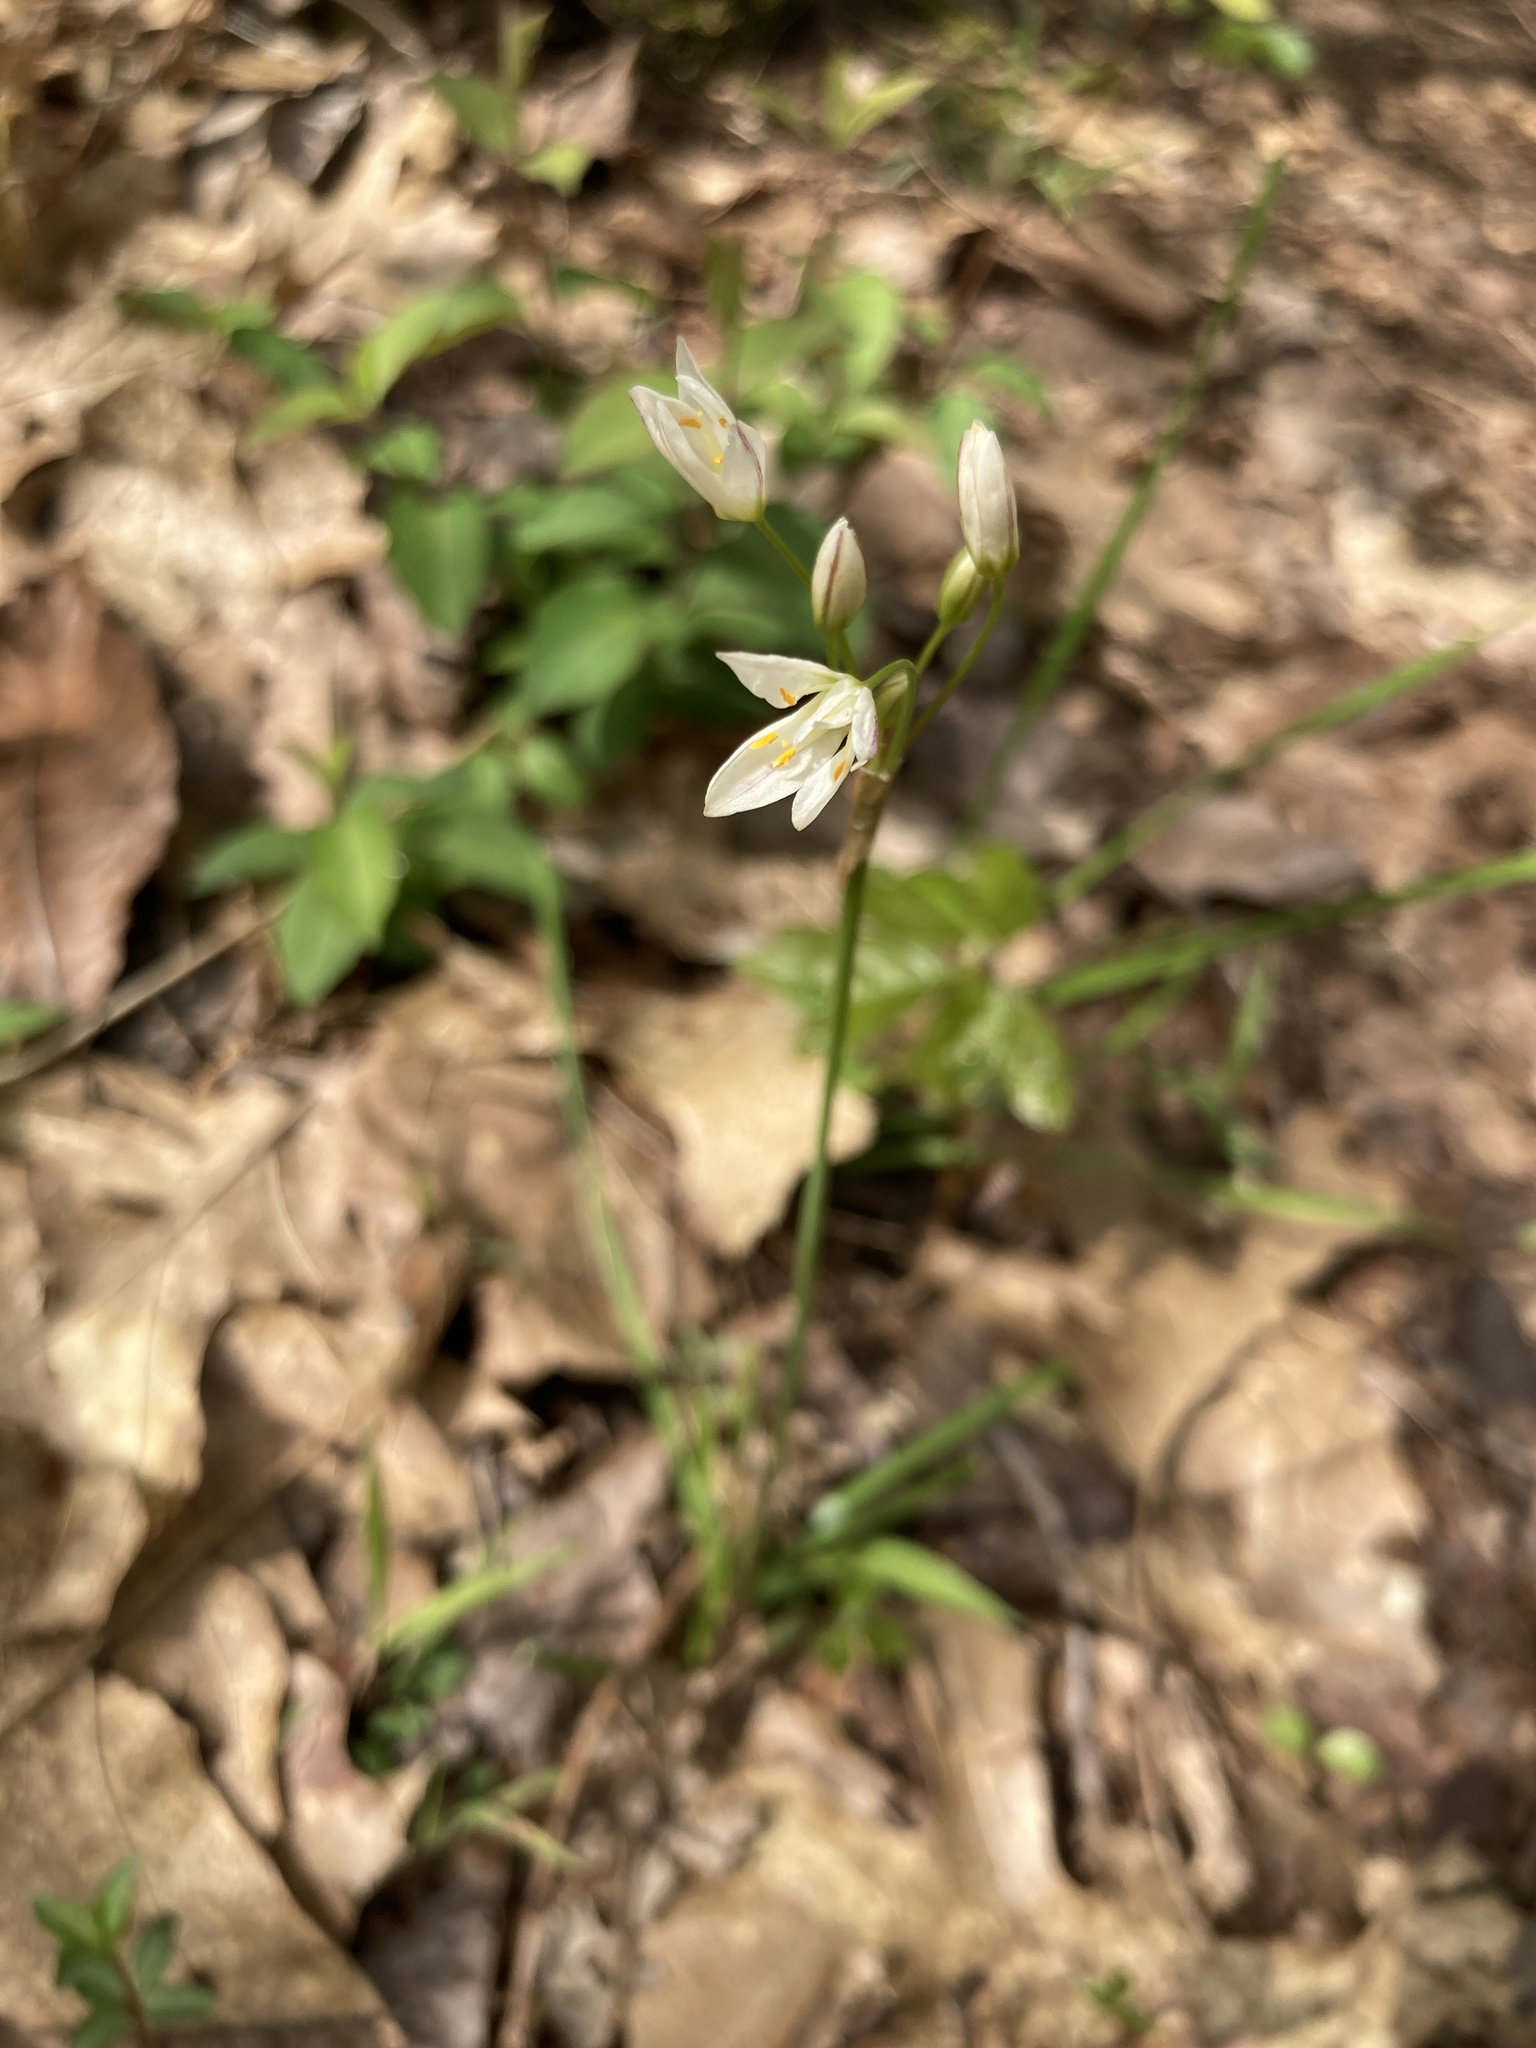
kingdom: Plantae
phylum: Tracheophyta
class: Liliopsida
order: Asparagales
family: Amaryllidaceae
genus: Nothoscordum
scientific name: Nothoscordum bivalve
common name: Crow-poison
